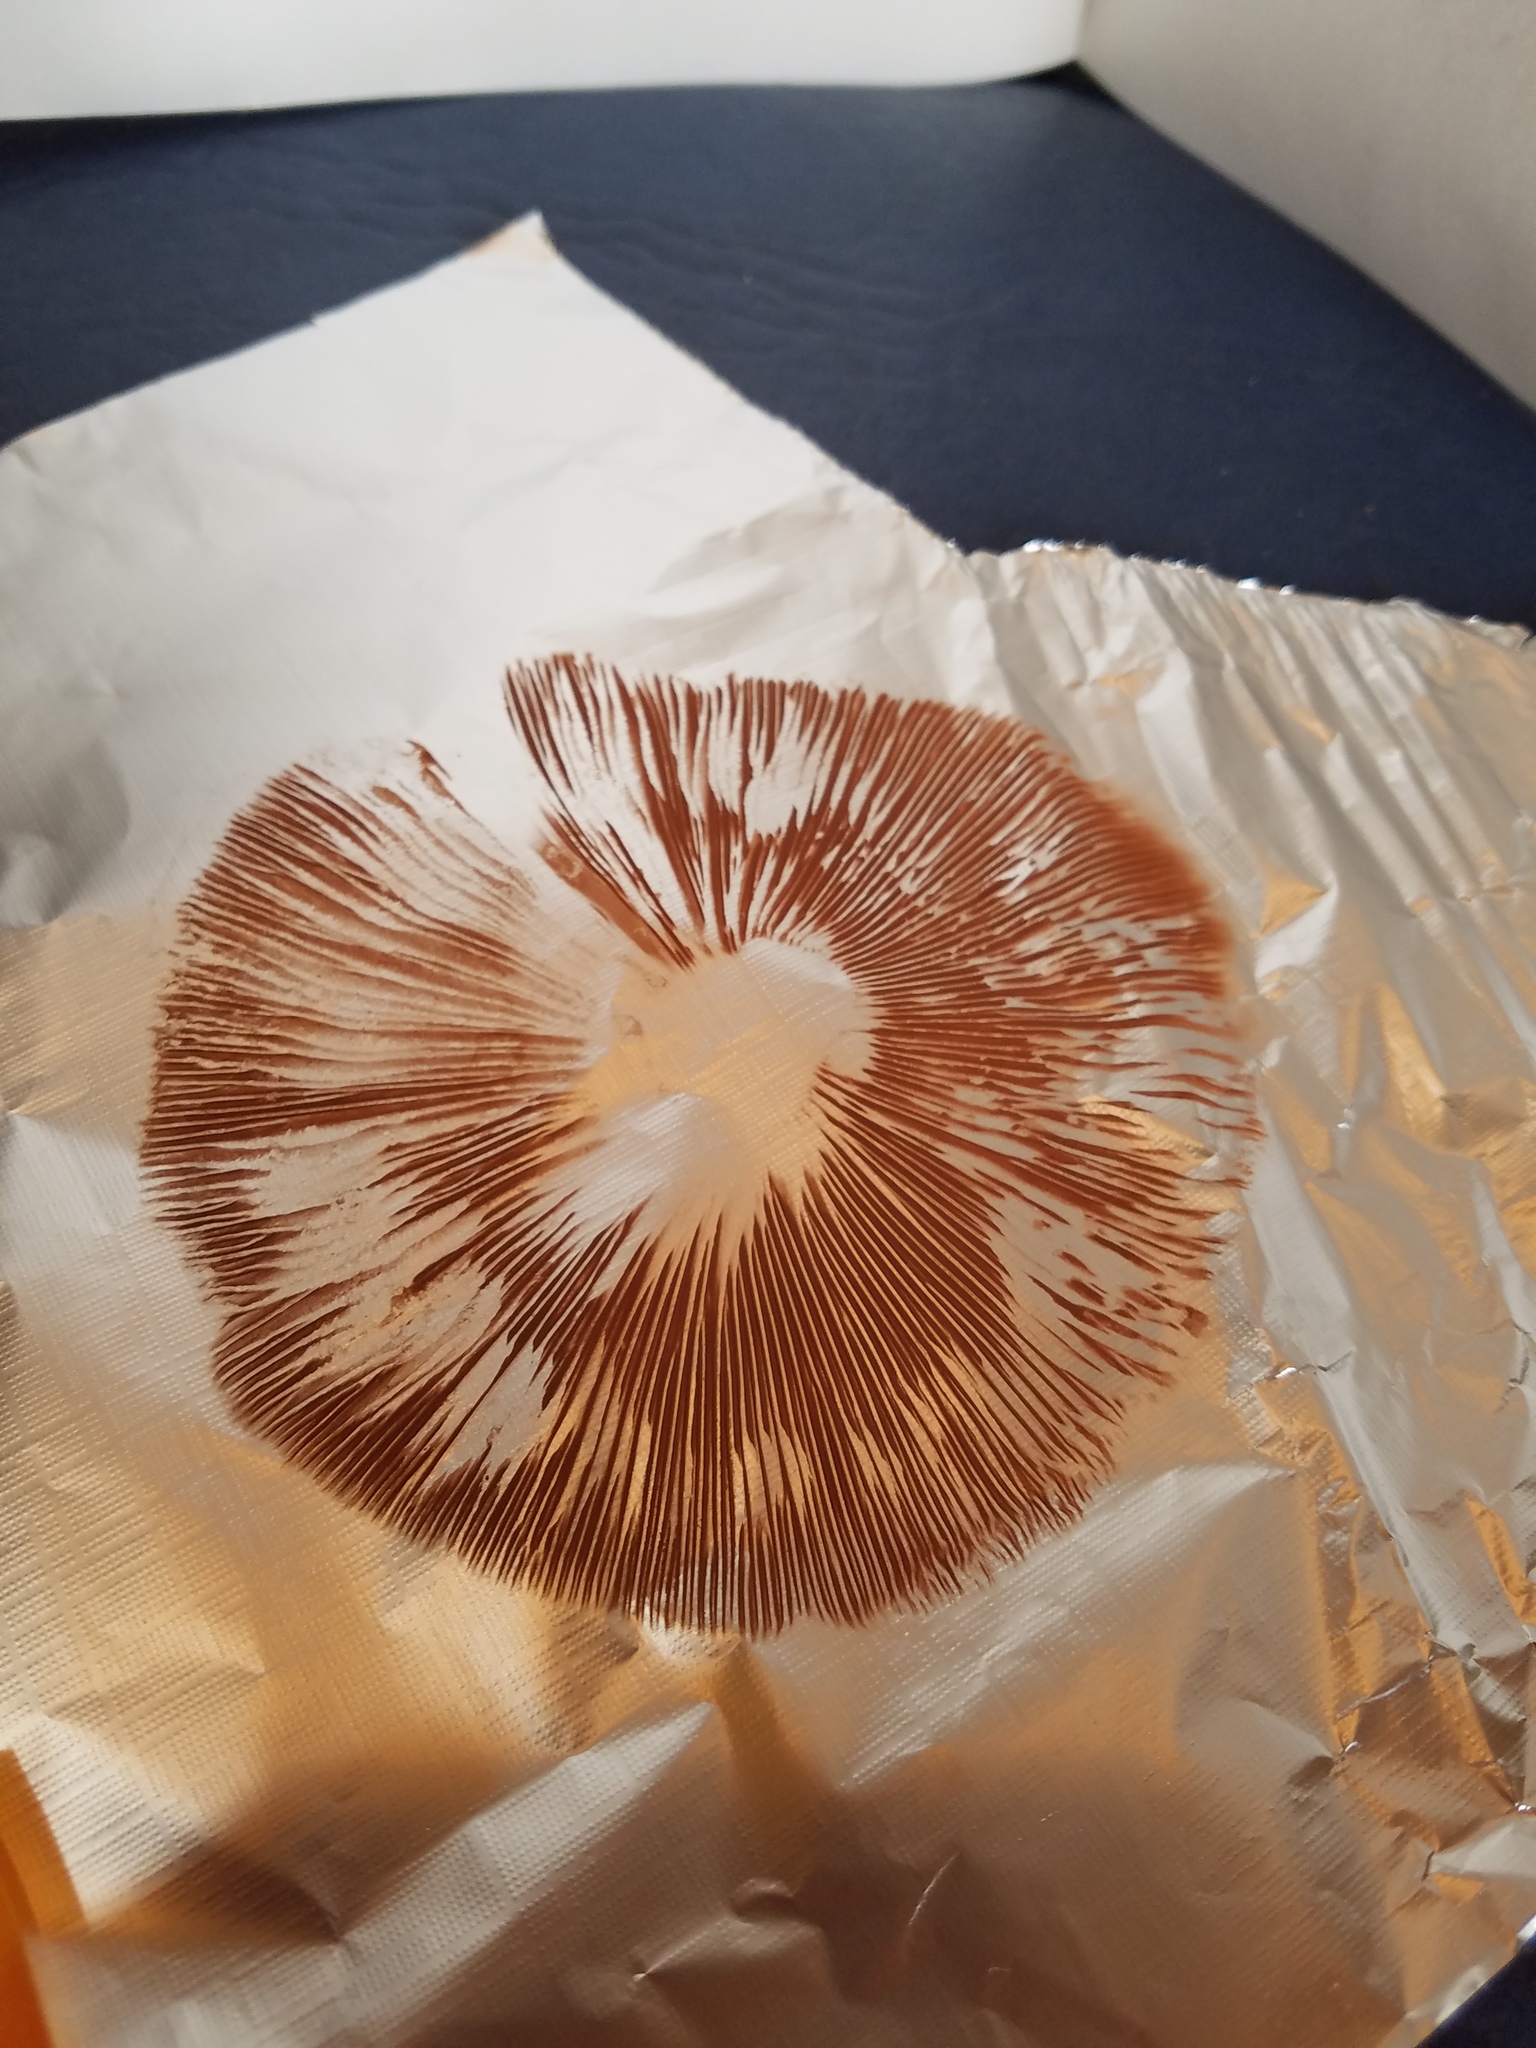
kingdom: Fungi
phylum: Basidiomycota
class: Agaricomycetes
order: Agaricales
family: Pluteaceae
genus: Volvopluteus
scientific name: Volvopluteus gloiocephalus
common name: Stubble rosegill
